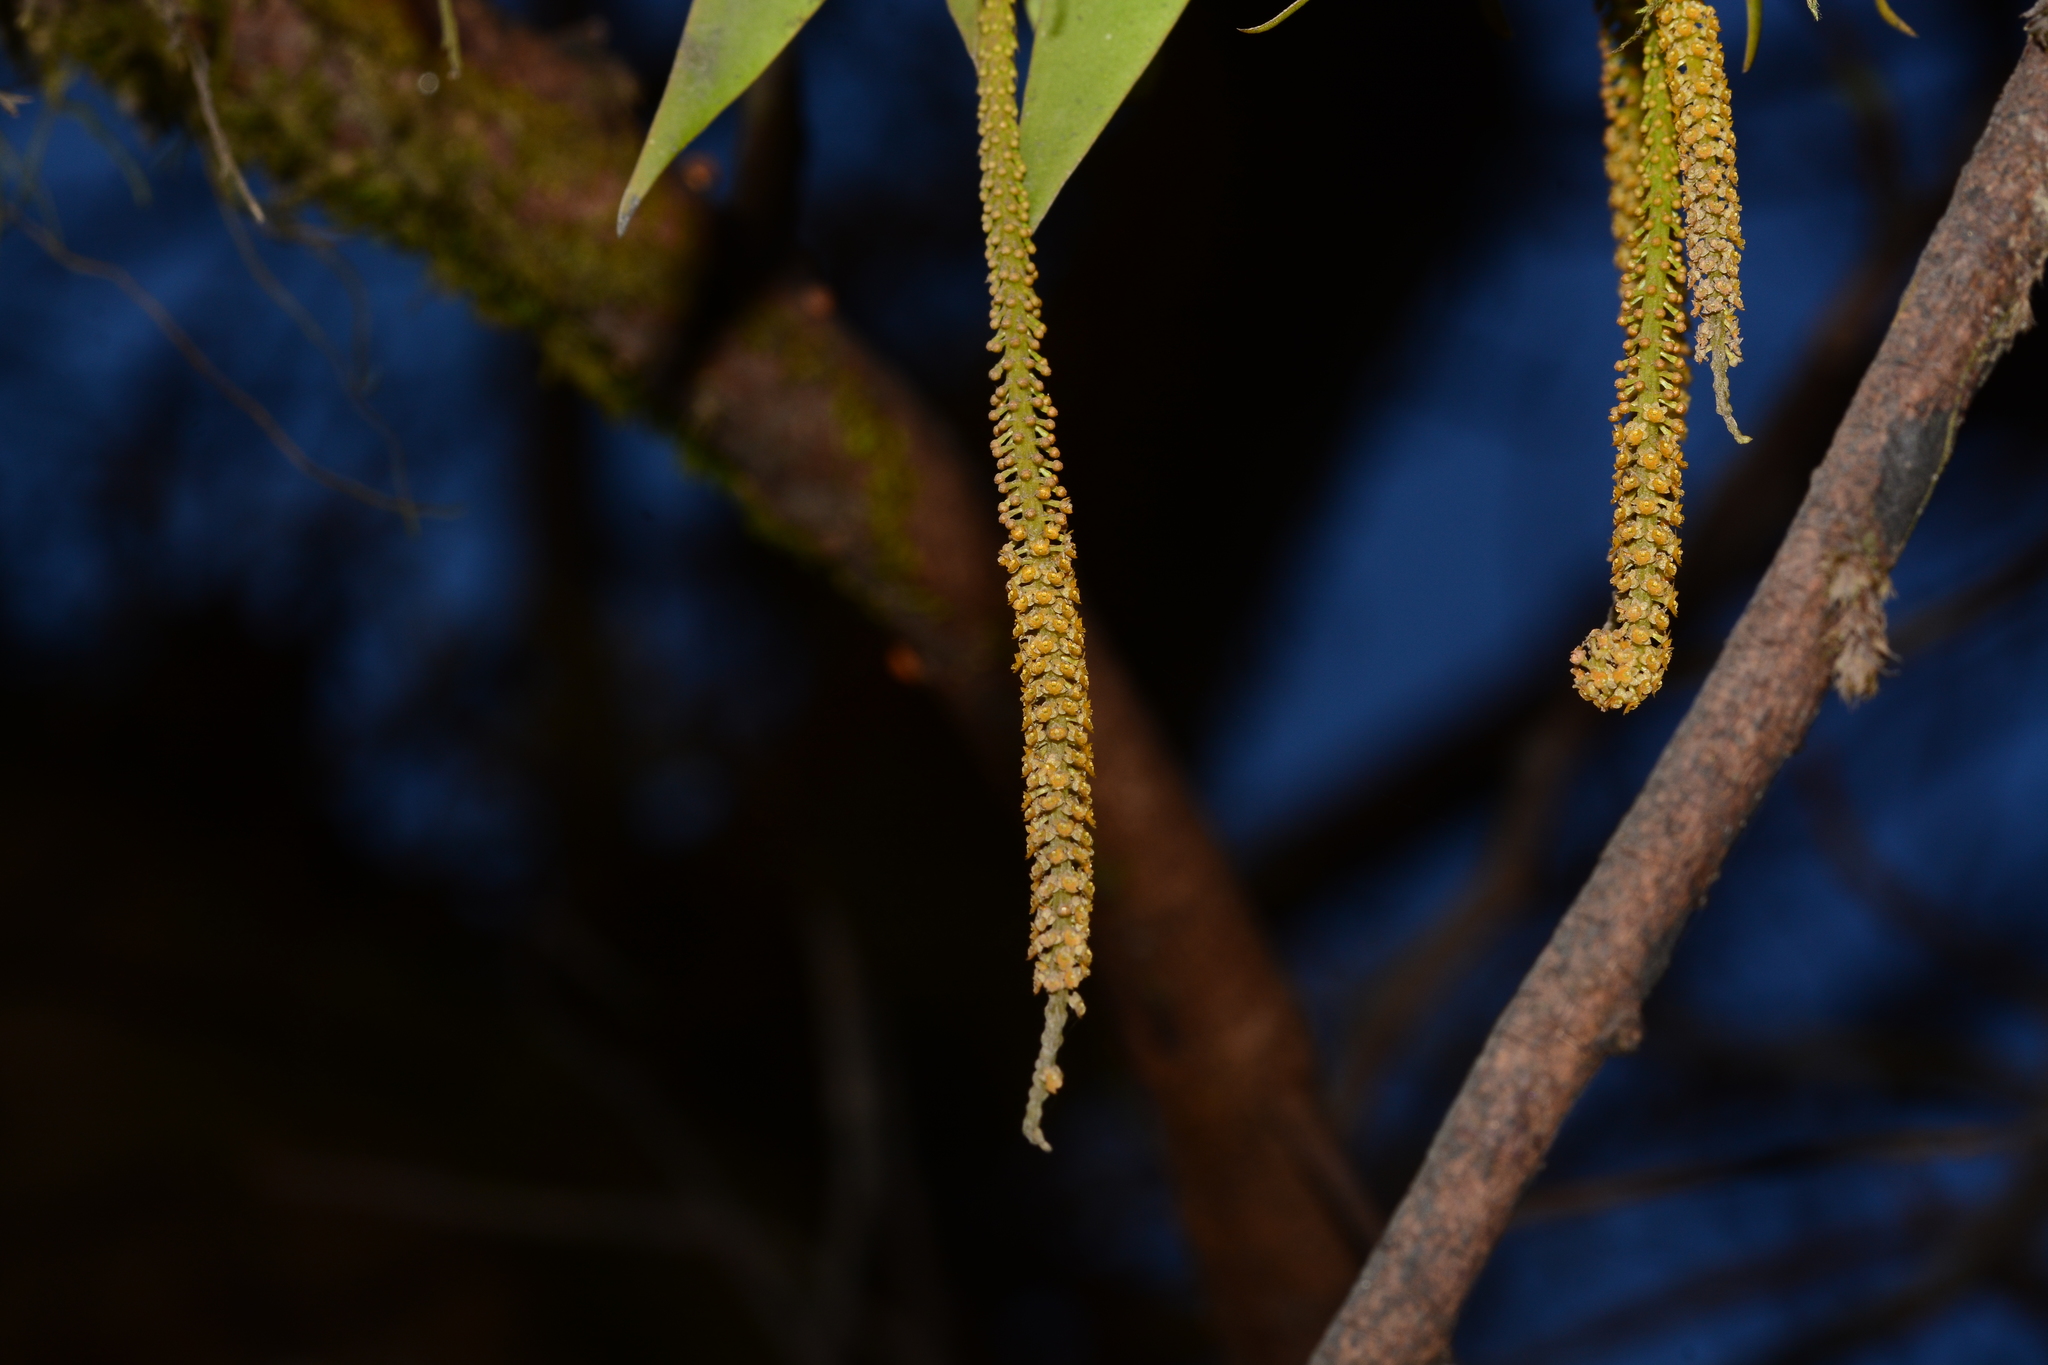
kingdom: Plantae
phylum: Tracheophyta
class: Liliopsida
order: Asparagales
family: Orchidaceae
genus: Oberonia
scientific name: Oberonia falconeri
